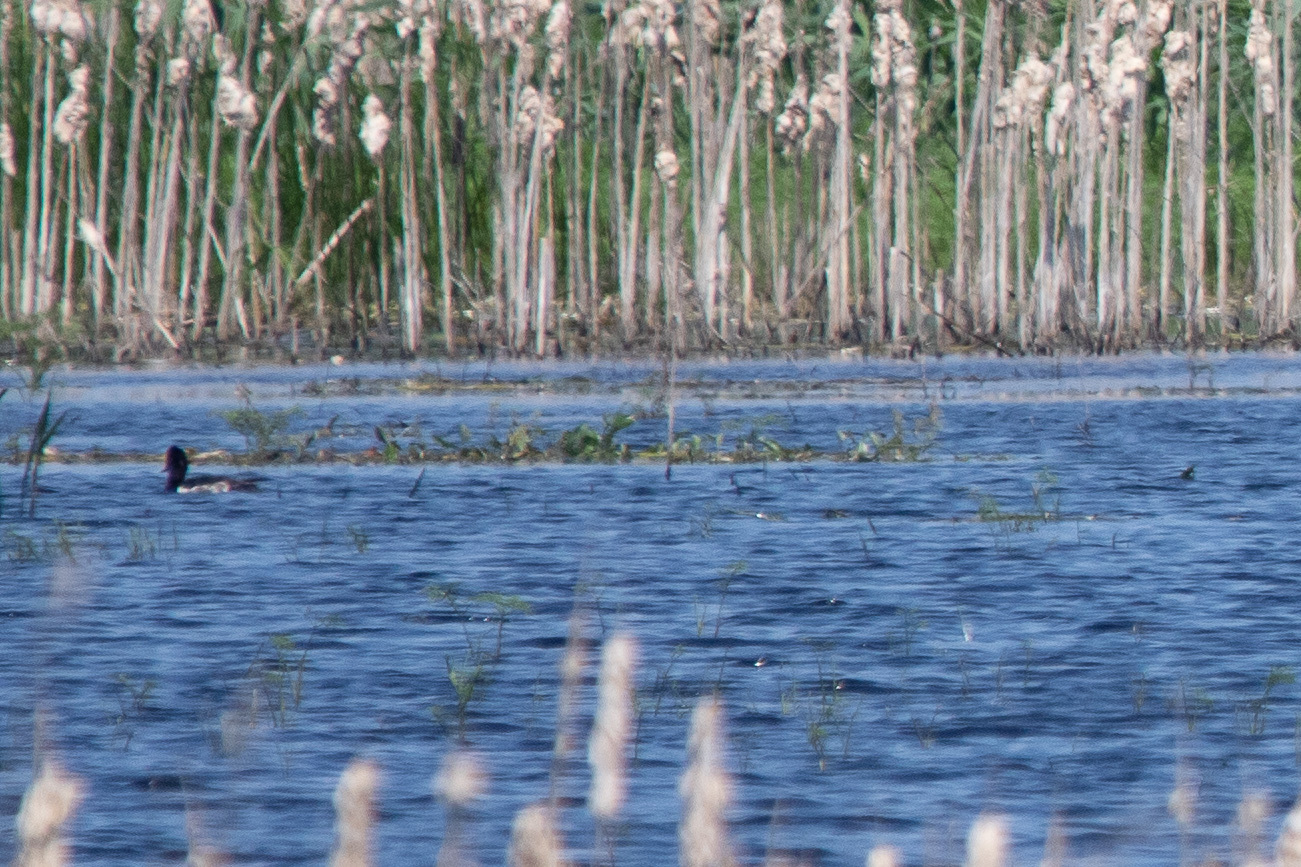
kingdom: Animalia
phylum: Chordata
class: Aves
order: Anseriformes
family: Anatidae
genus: Aythya
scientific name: Aythya fuligula
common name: Tufted duck
